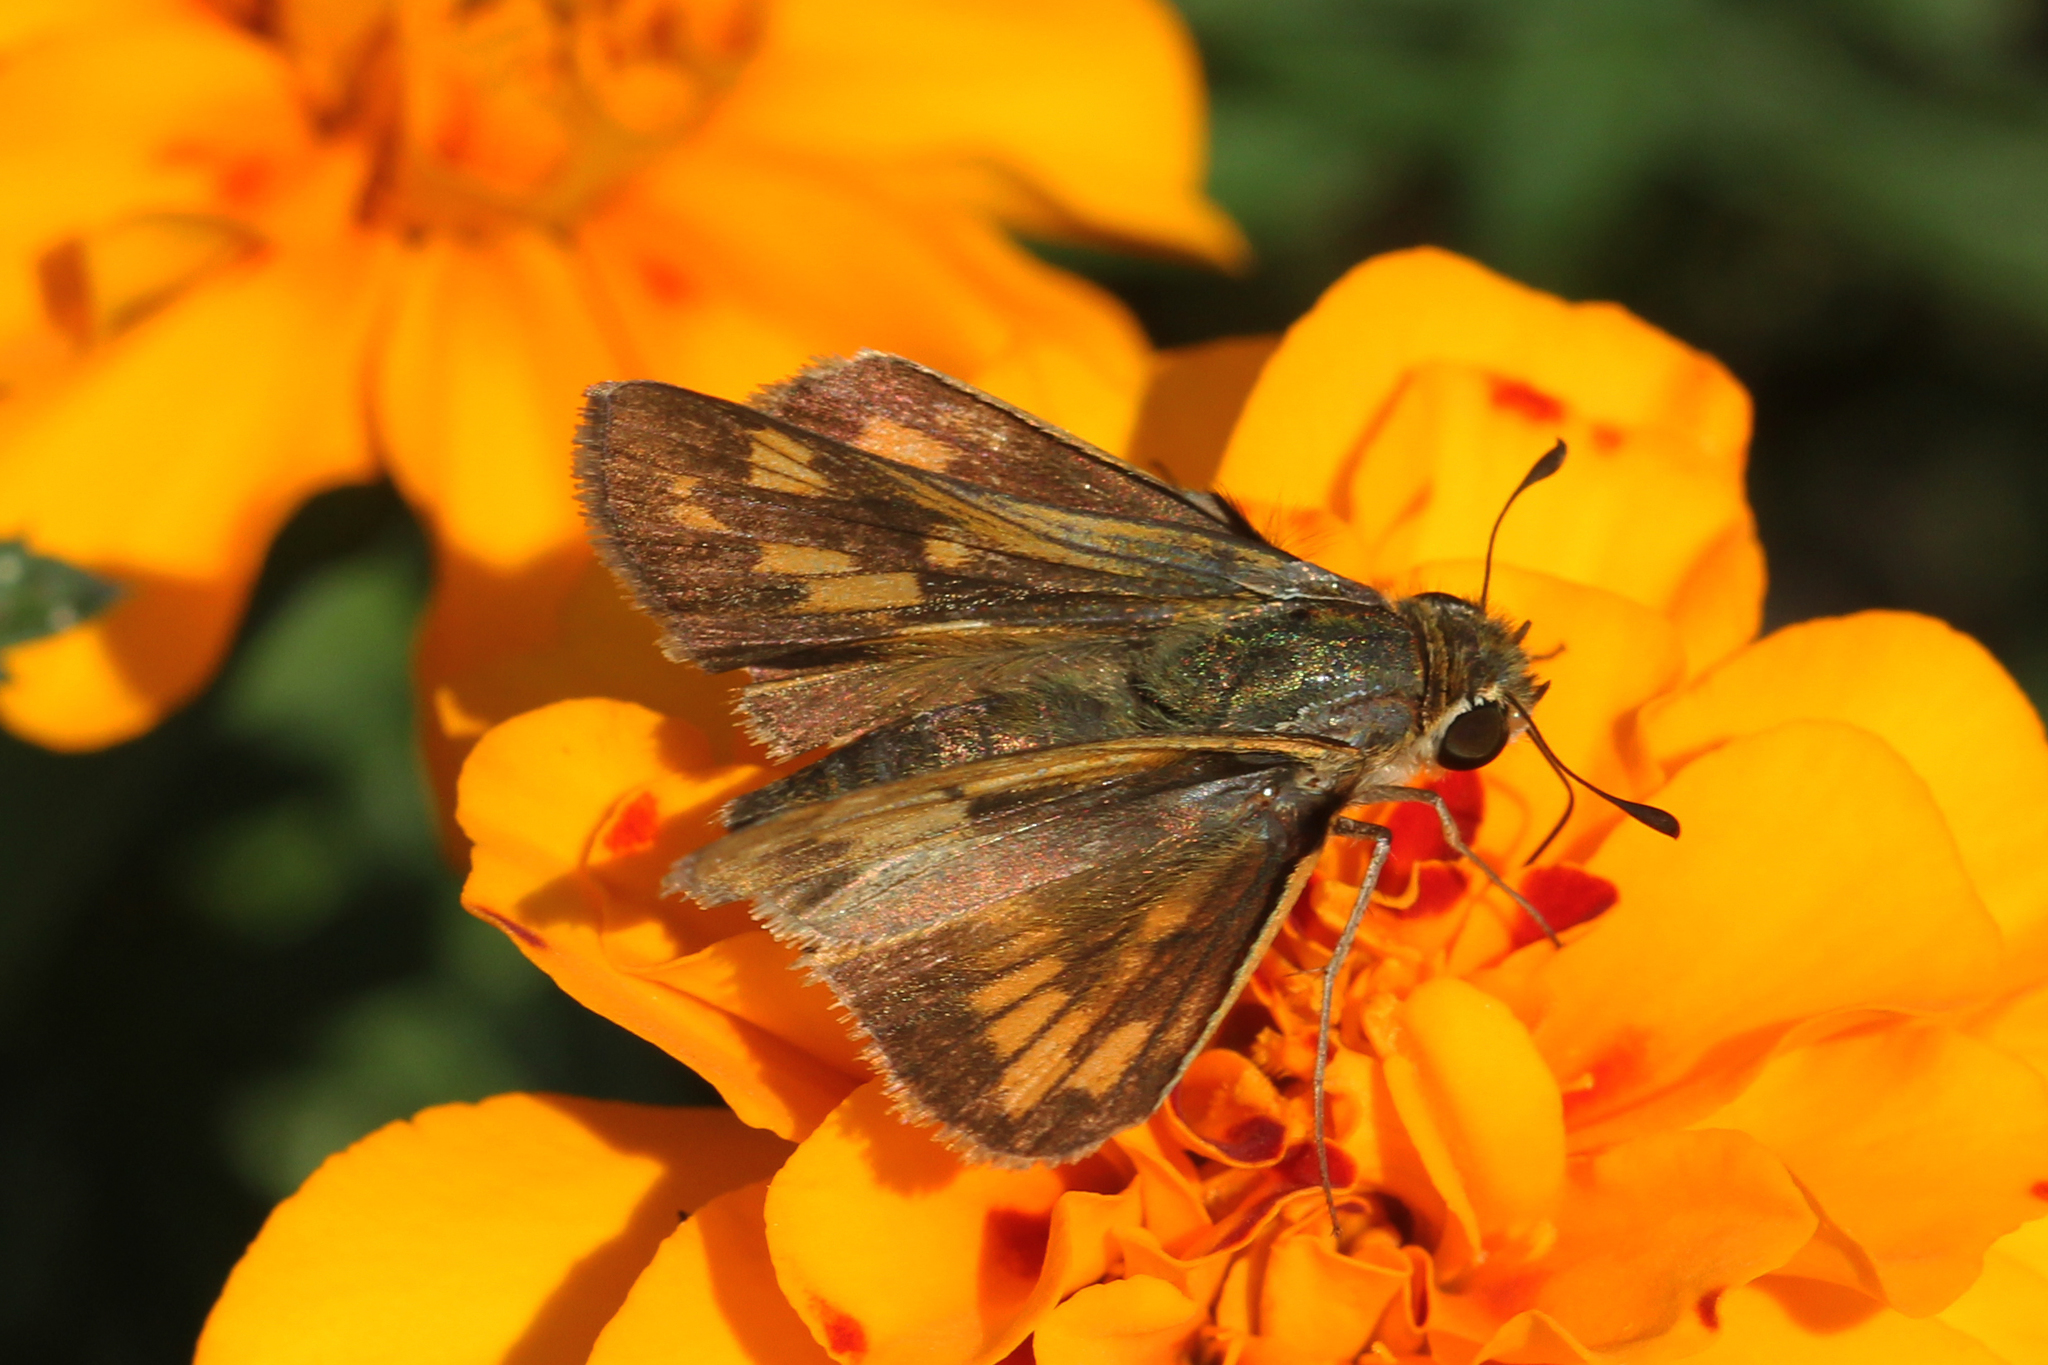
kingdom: Animalia
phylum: Arthropoda
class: Insecta
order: Lepidoptera
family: Hesperiidae
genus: Polites
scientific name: Polites coras
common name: Peck's skipper
